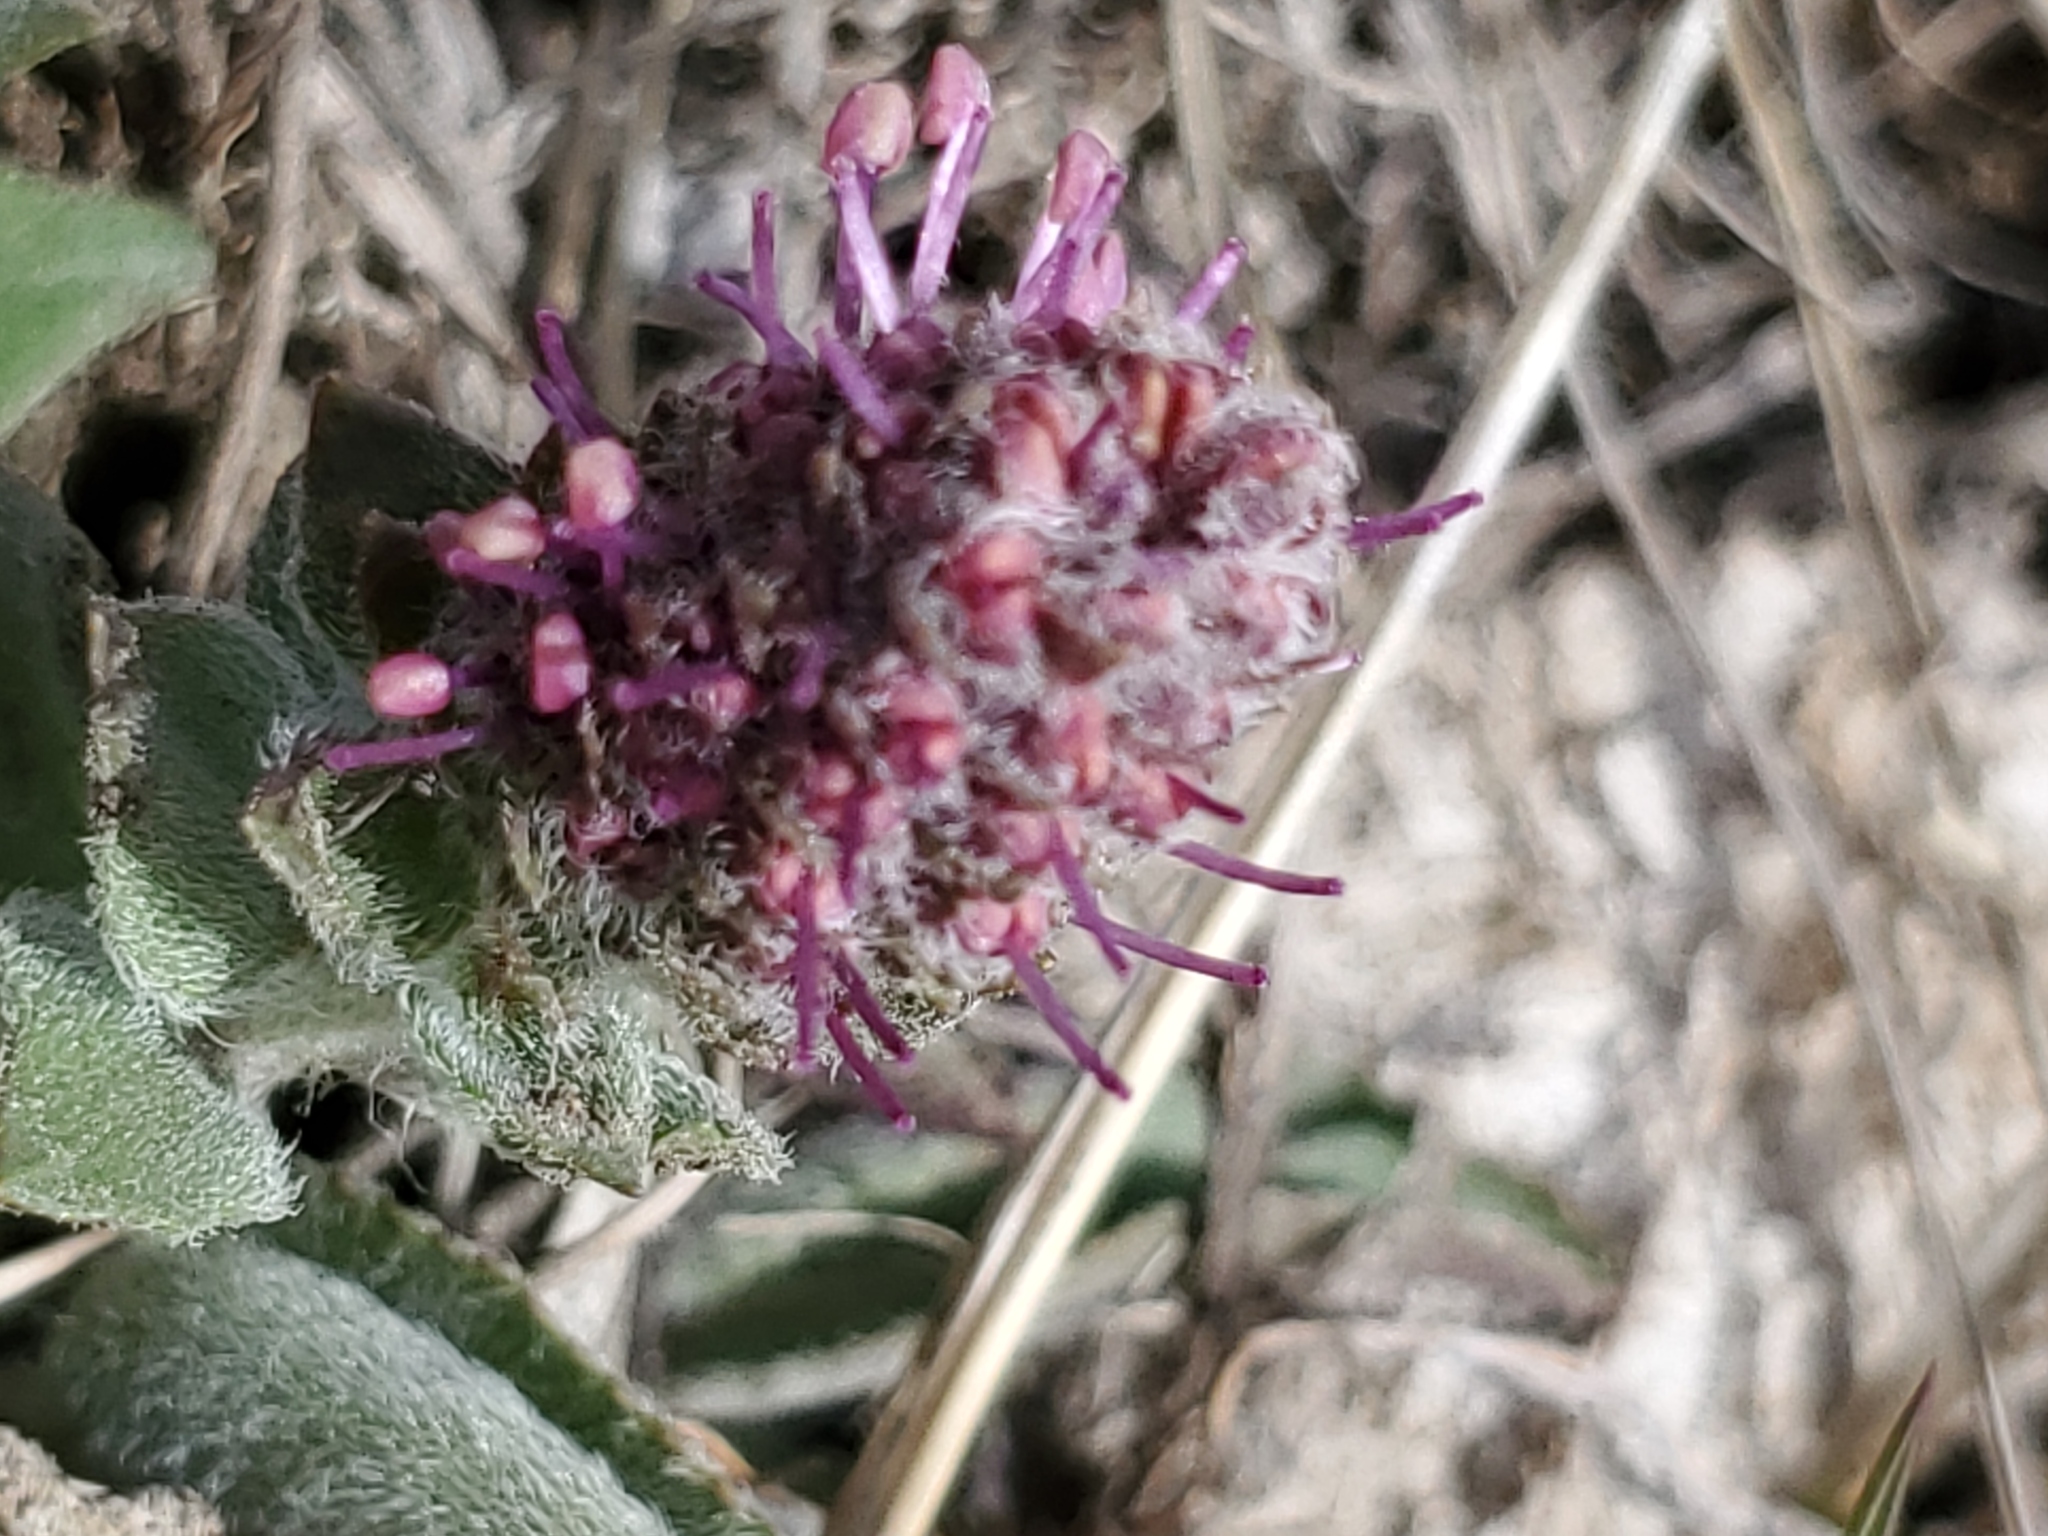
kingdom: Plantae
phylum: Tracheophyta
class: Magnoliopsida
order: Lamiales
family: Plantaginaceae
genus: Synthyris
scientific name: Synthyris wyomingensis
